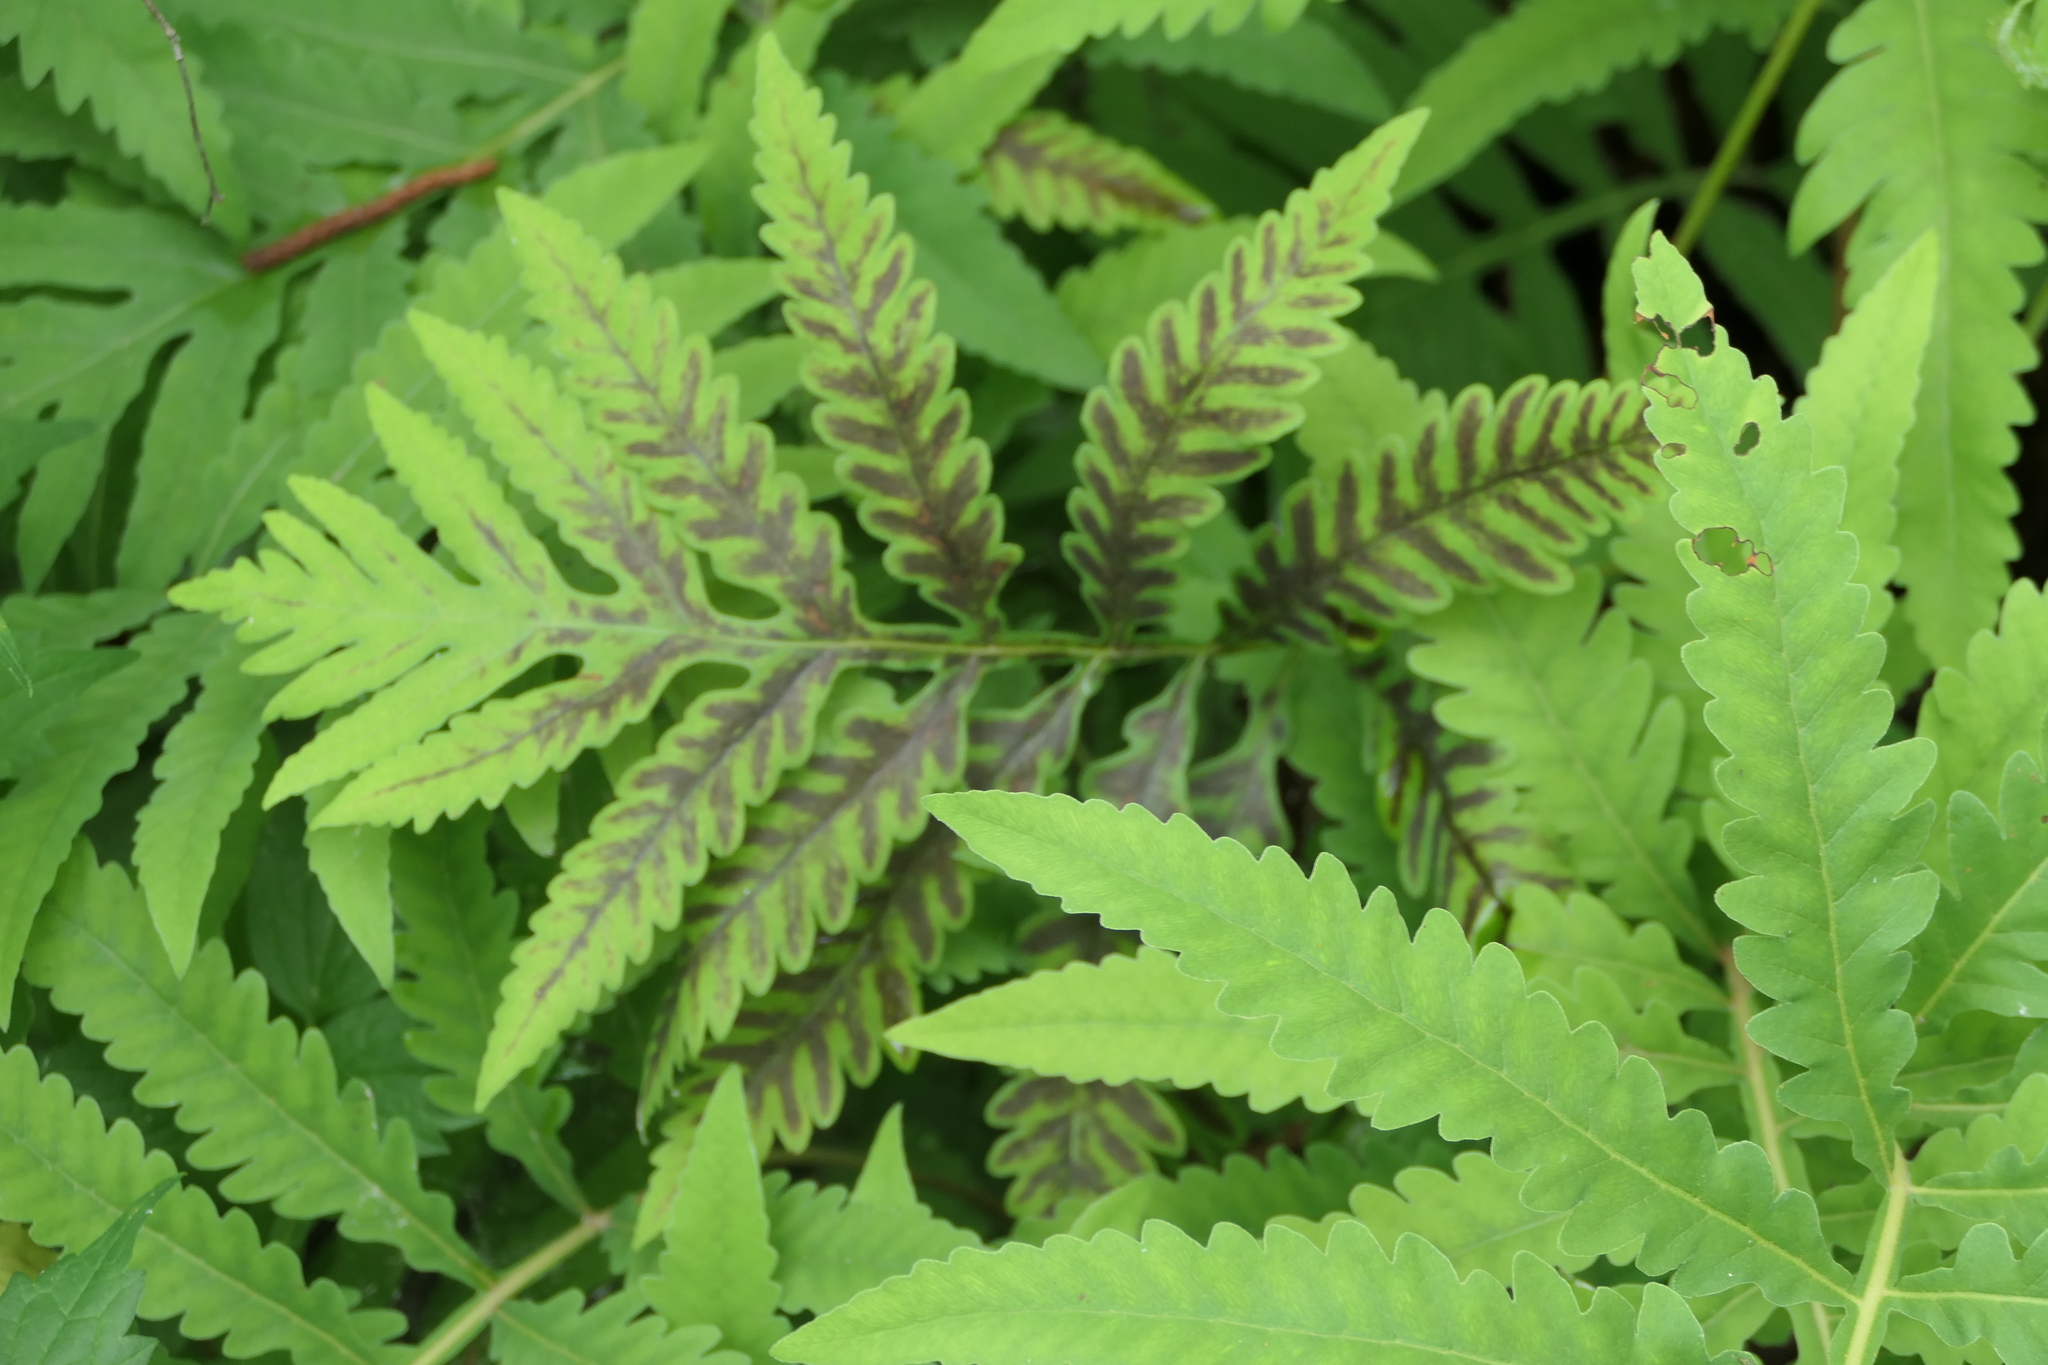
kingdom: Plantae
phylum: Tracheophyta
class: Polypodiopsida
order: Polypodiales
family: Onocleaceae
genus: Onoclea
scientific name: Onoclea sensibilis
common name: Sensitive fern
